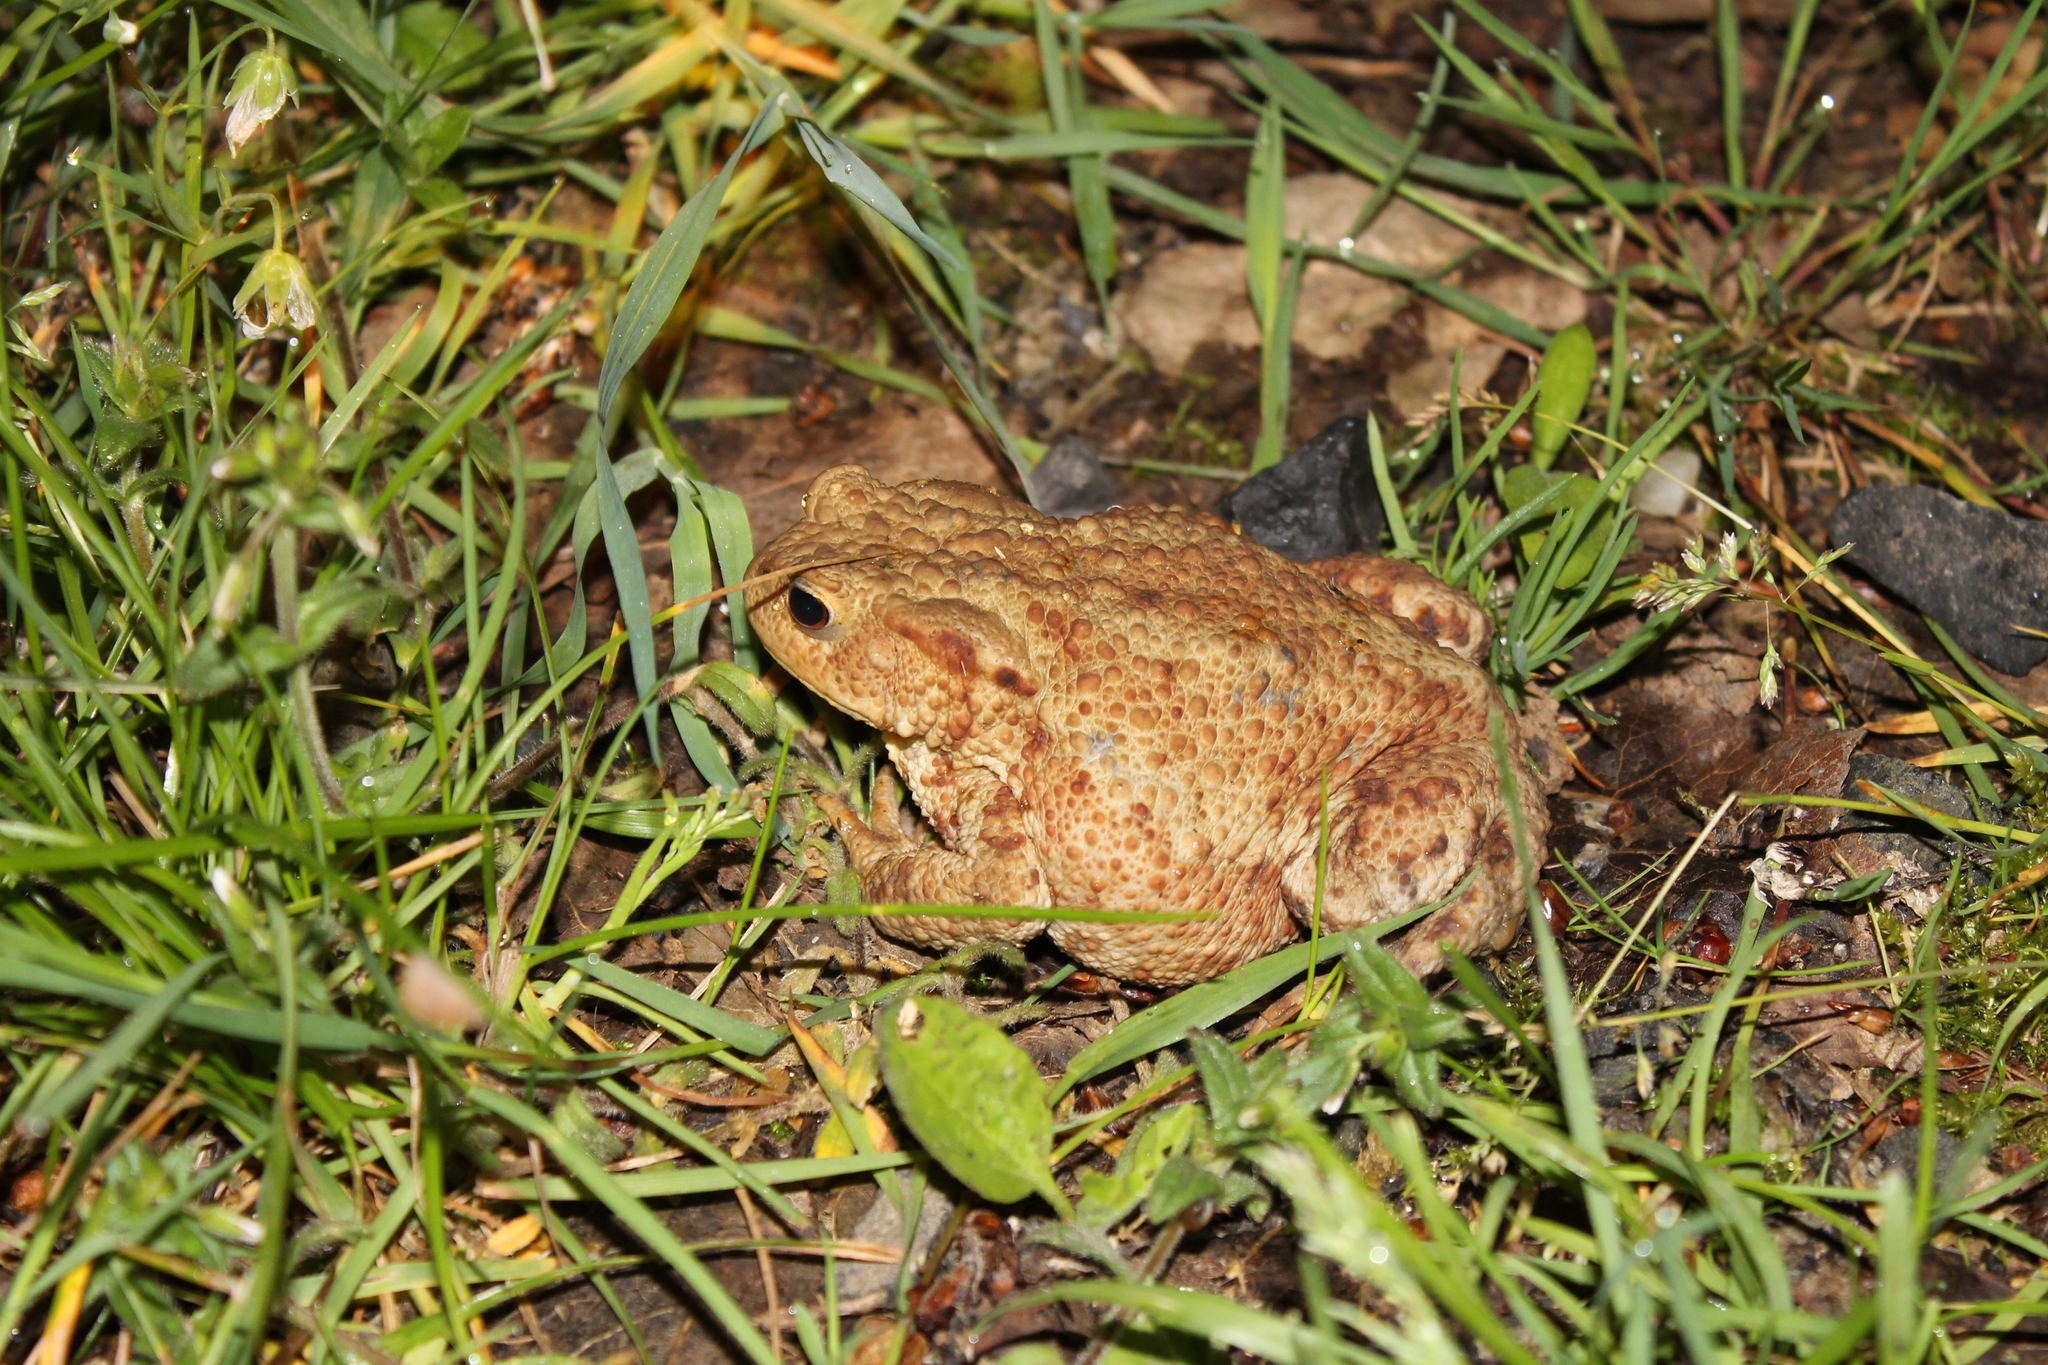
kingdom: Animalia
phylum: Chordata
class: Amphibia
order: Anura
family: Bufonidae
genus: Bufo
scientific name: Bufo bufo
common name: Common toad
